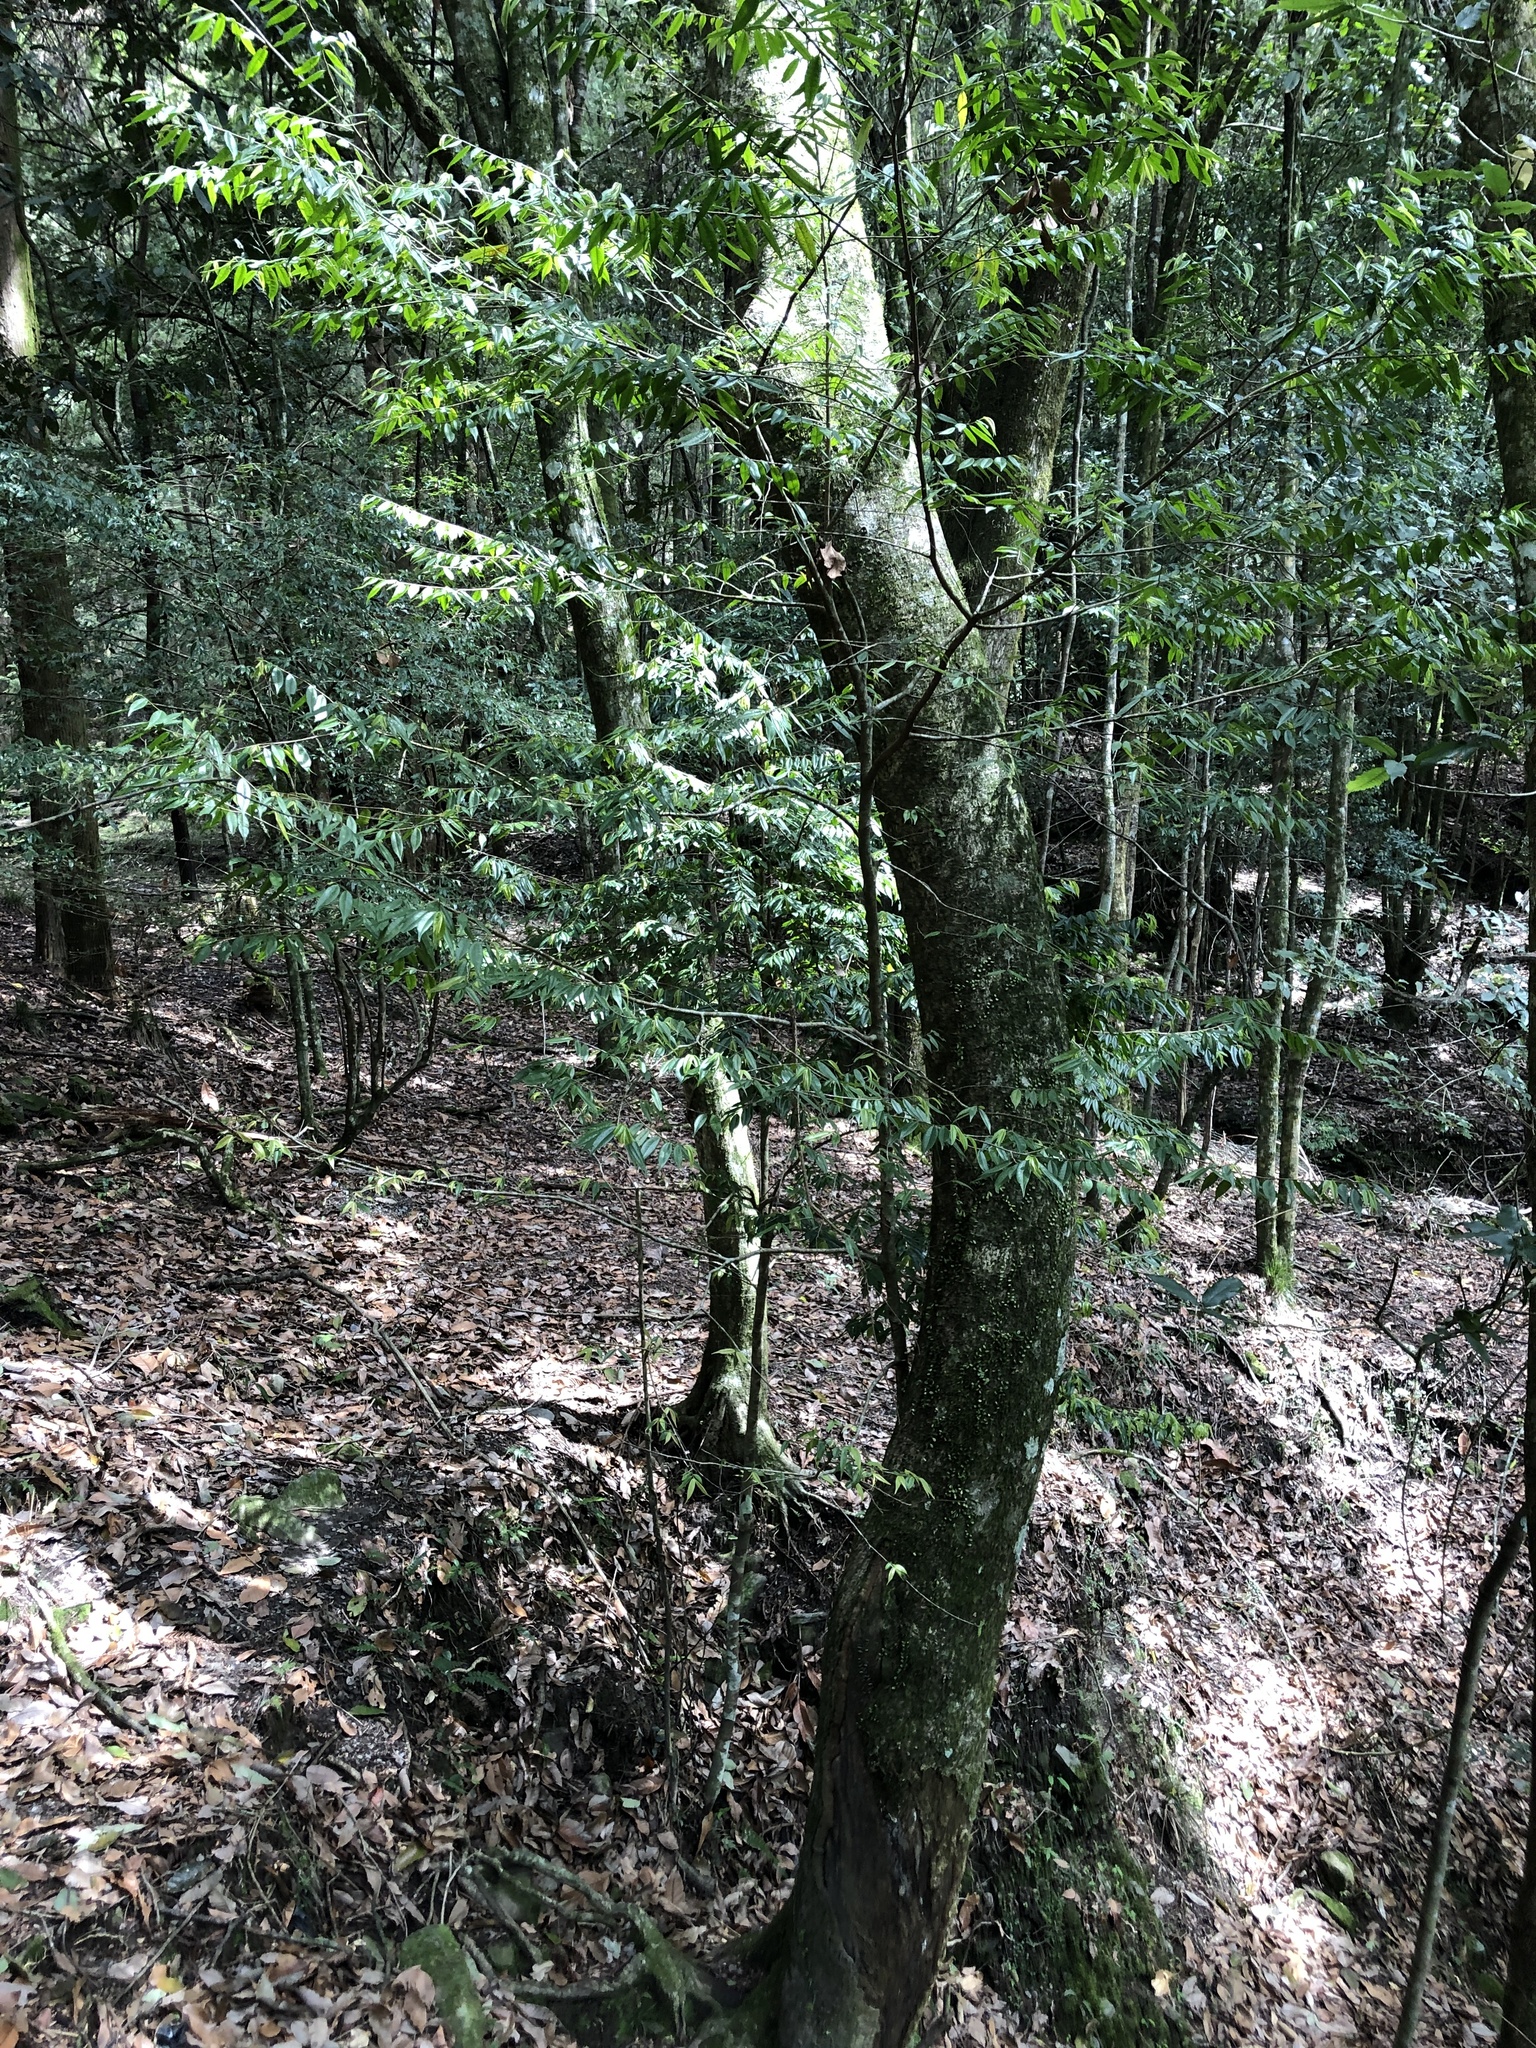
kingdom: Plantae
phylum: Tracheophyta
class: Magnoliopsida
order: Fagales
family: Fagaceae
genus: Lithocarpus
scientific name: Lithocarpus kawakamii
